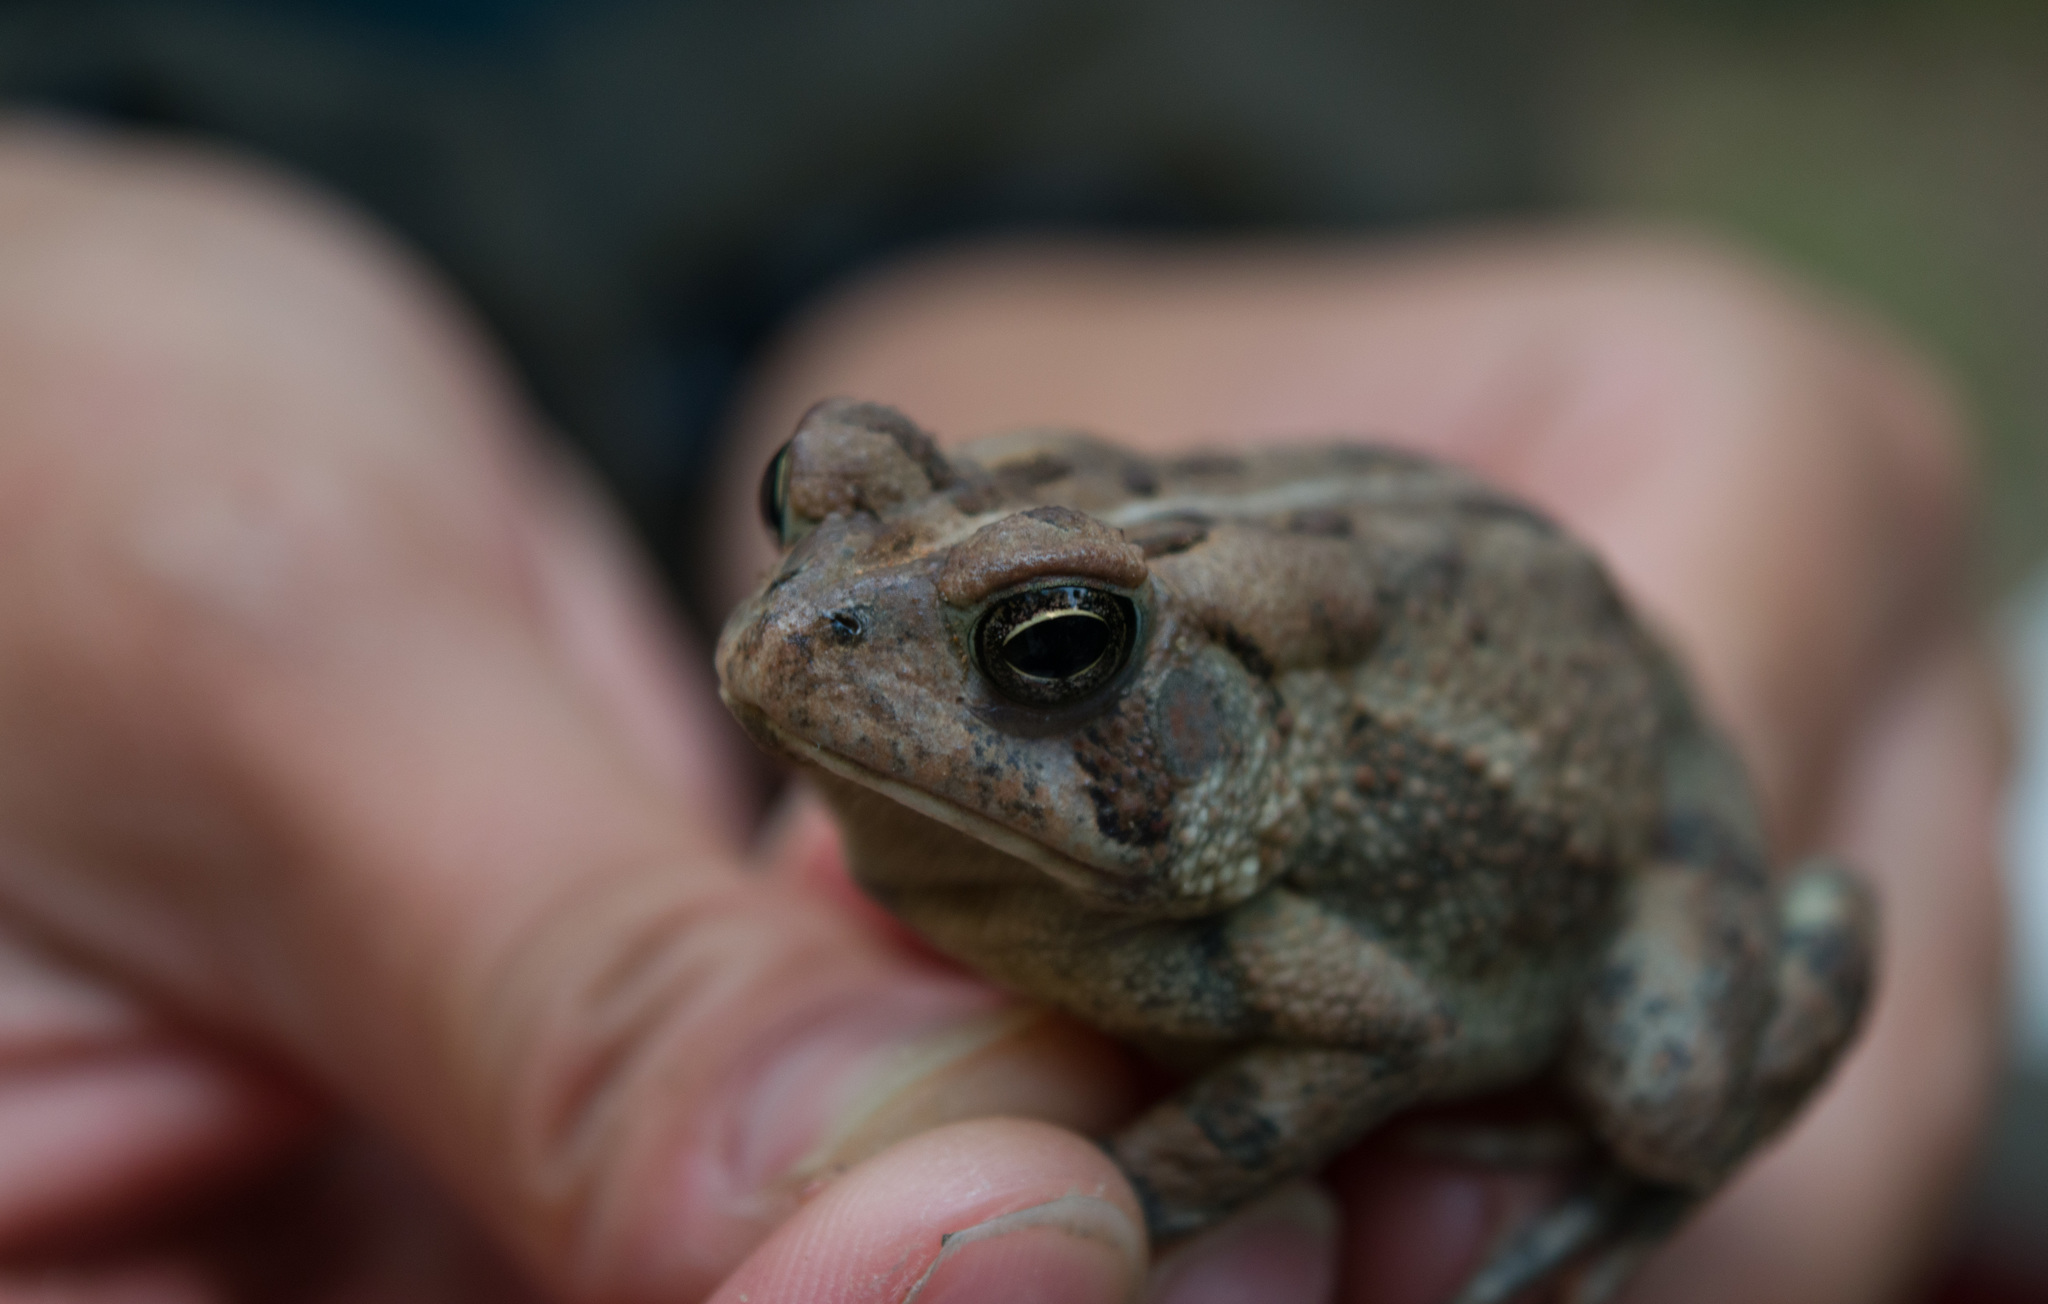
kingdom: Animalia
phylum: Chordata
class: Amphibia
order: Anura
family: Bufonidae
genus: Anaxyrus
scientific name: Anaxyrus fowleri
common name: Fowler's toad
